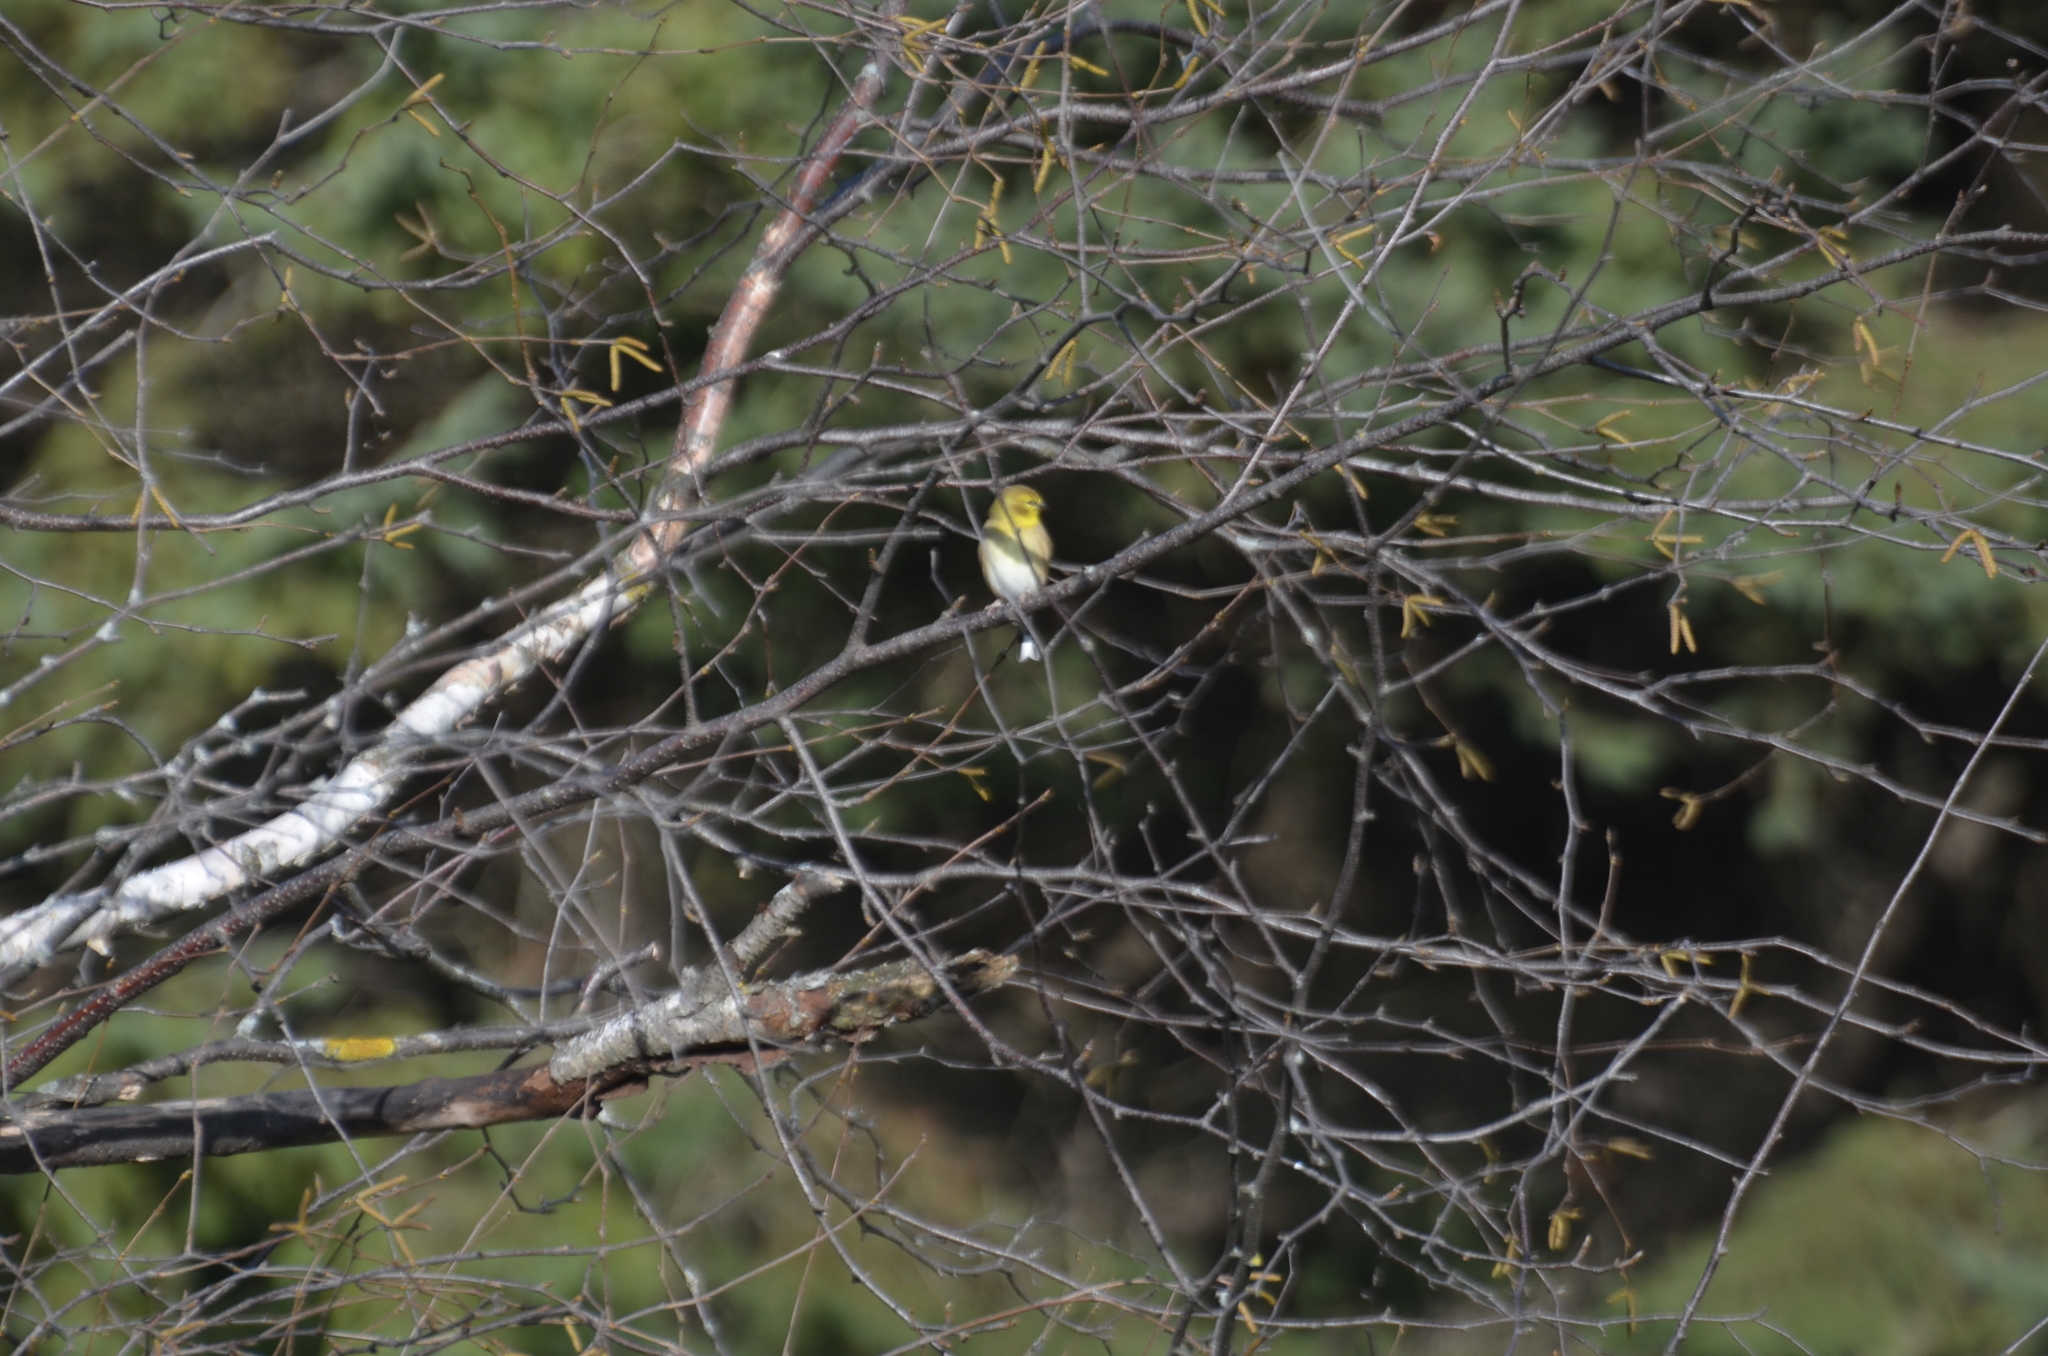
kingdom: Animalia
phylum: Chordata
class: Aves
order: Passeriformes
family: Fringillidae
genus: Spinus
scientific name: Spinus tristis
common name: American goldfinch
